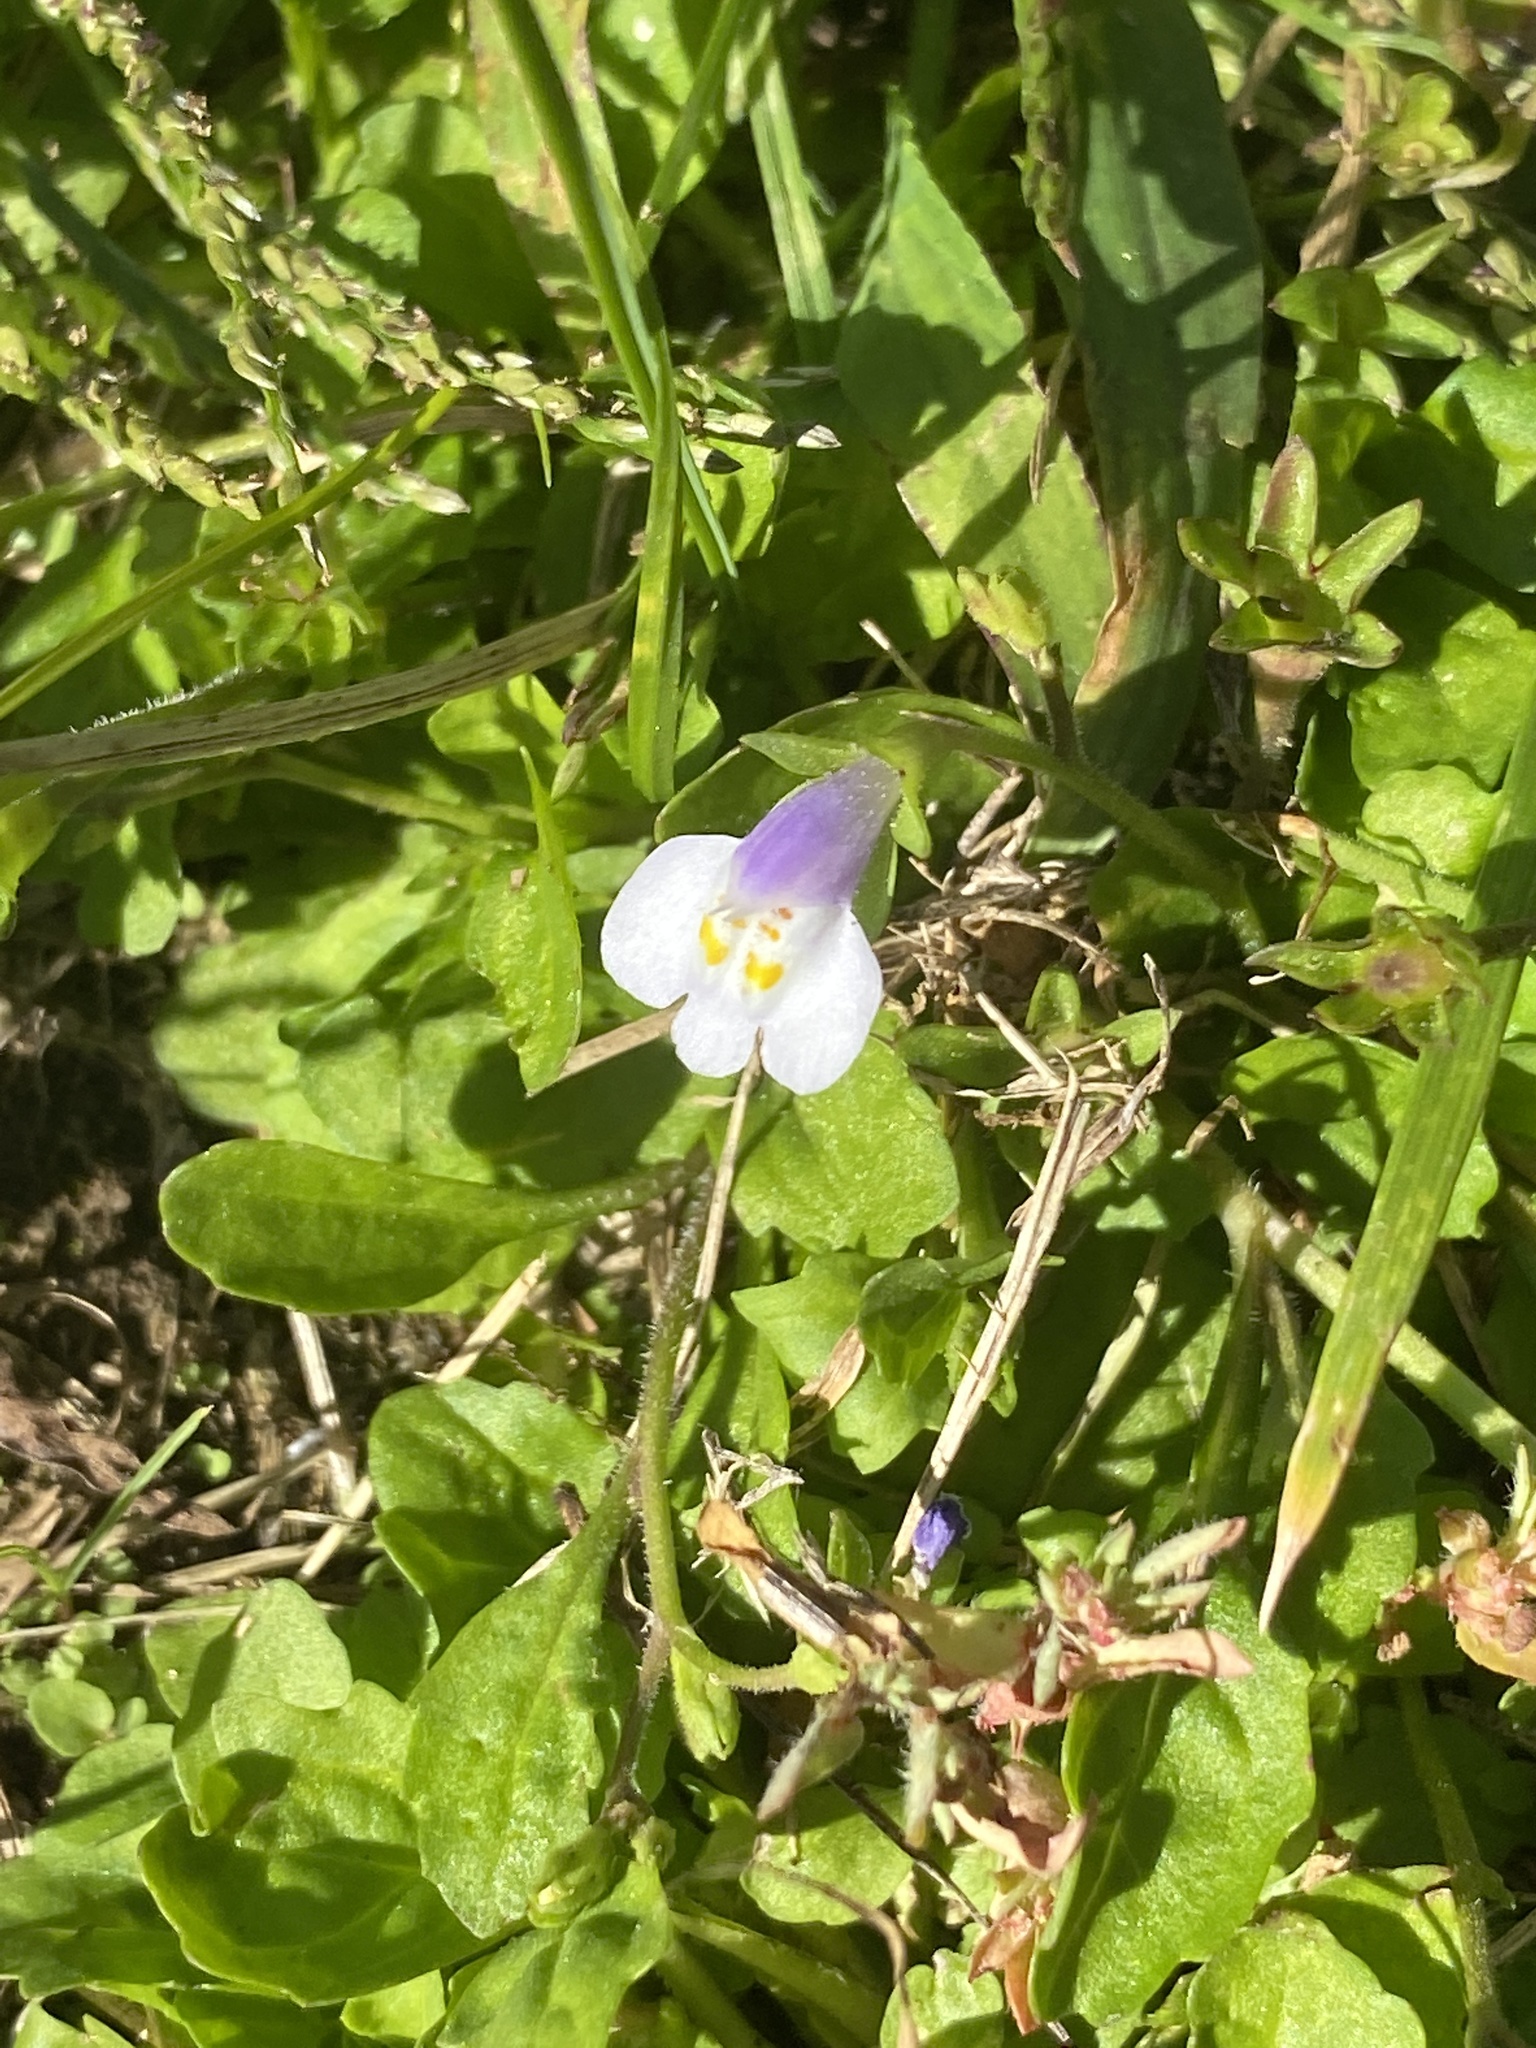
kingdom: Plantae
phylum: Tracheophyta
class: Magnoliopsida
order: Lamiales
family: Mazaceae
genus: Mazus
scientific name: Mazus pumilus
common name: Japanese mazus
